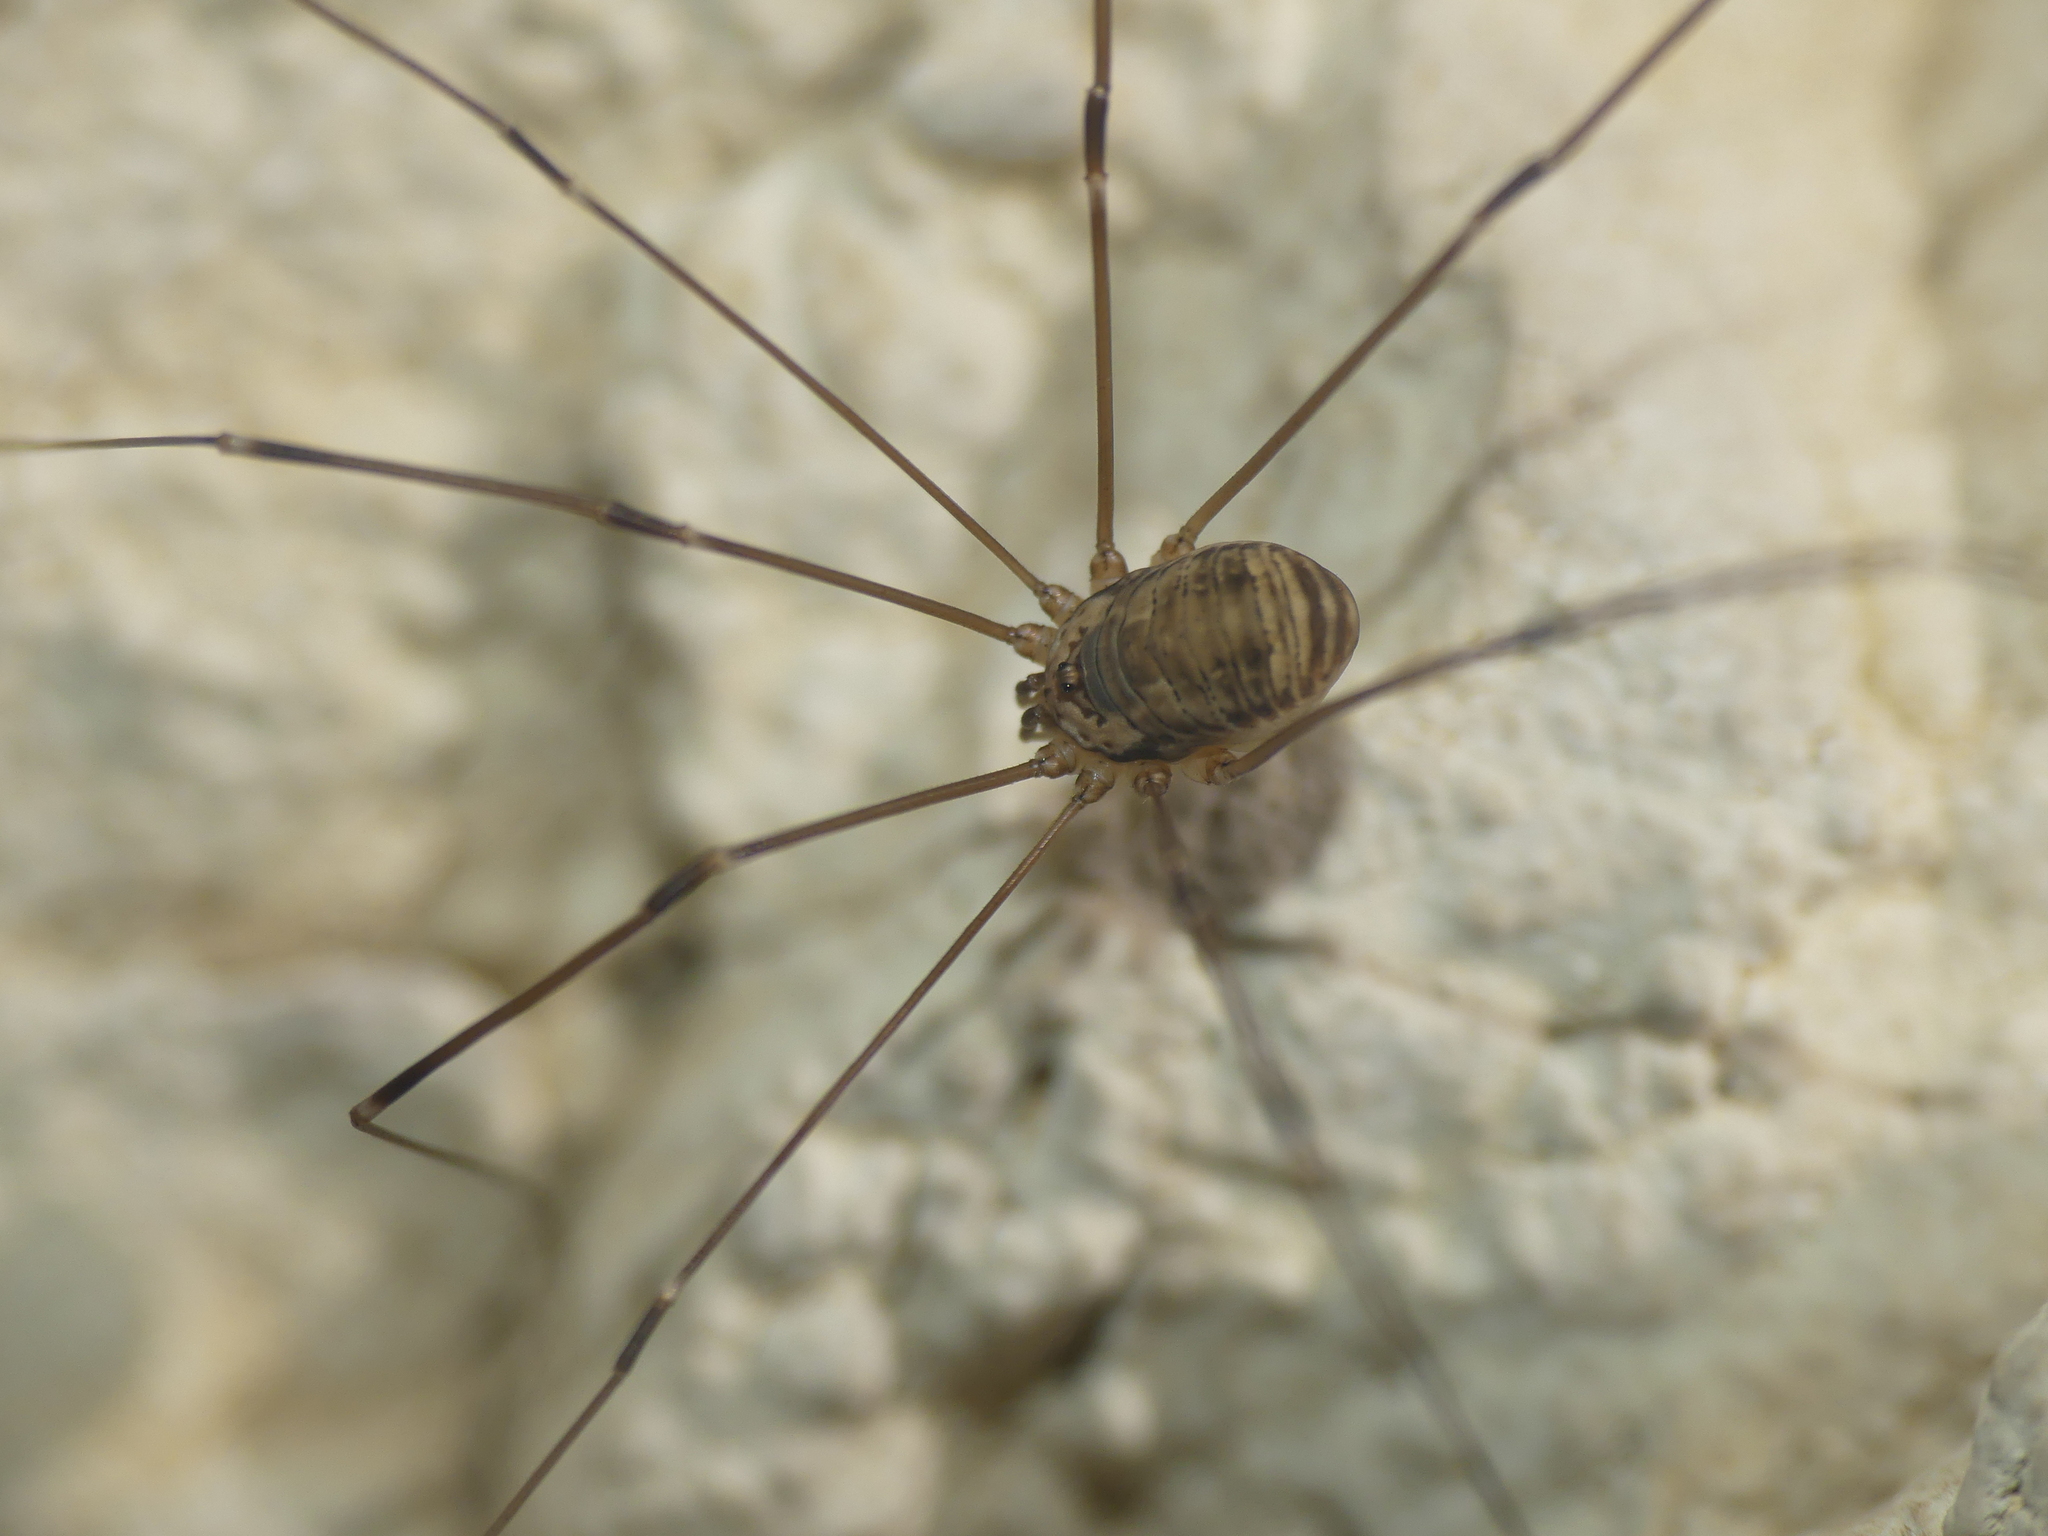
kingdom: Animalia
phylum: Arthropoda
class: Arachnida
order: Opiliones
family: Sclerosomatidae
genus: Leiobunum
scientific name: Leiobunum limbatum
